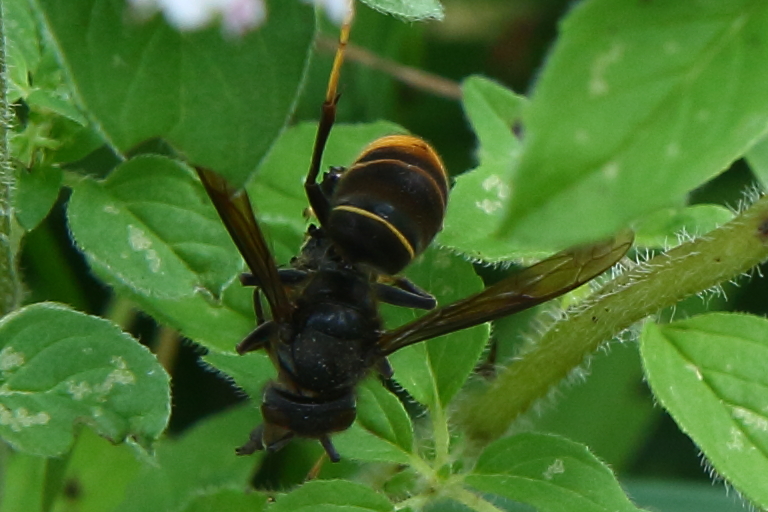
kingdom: Animalia
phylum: Arthropoda
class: Insecta
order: Hymenoptera
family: Vespidae
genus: Vespa
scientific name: Vespa velutina
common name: Asian hornet
